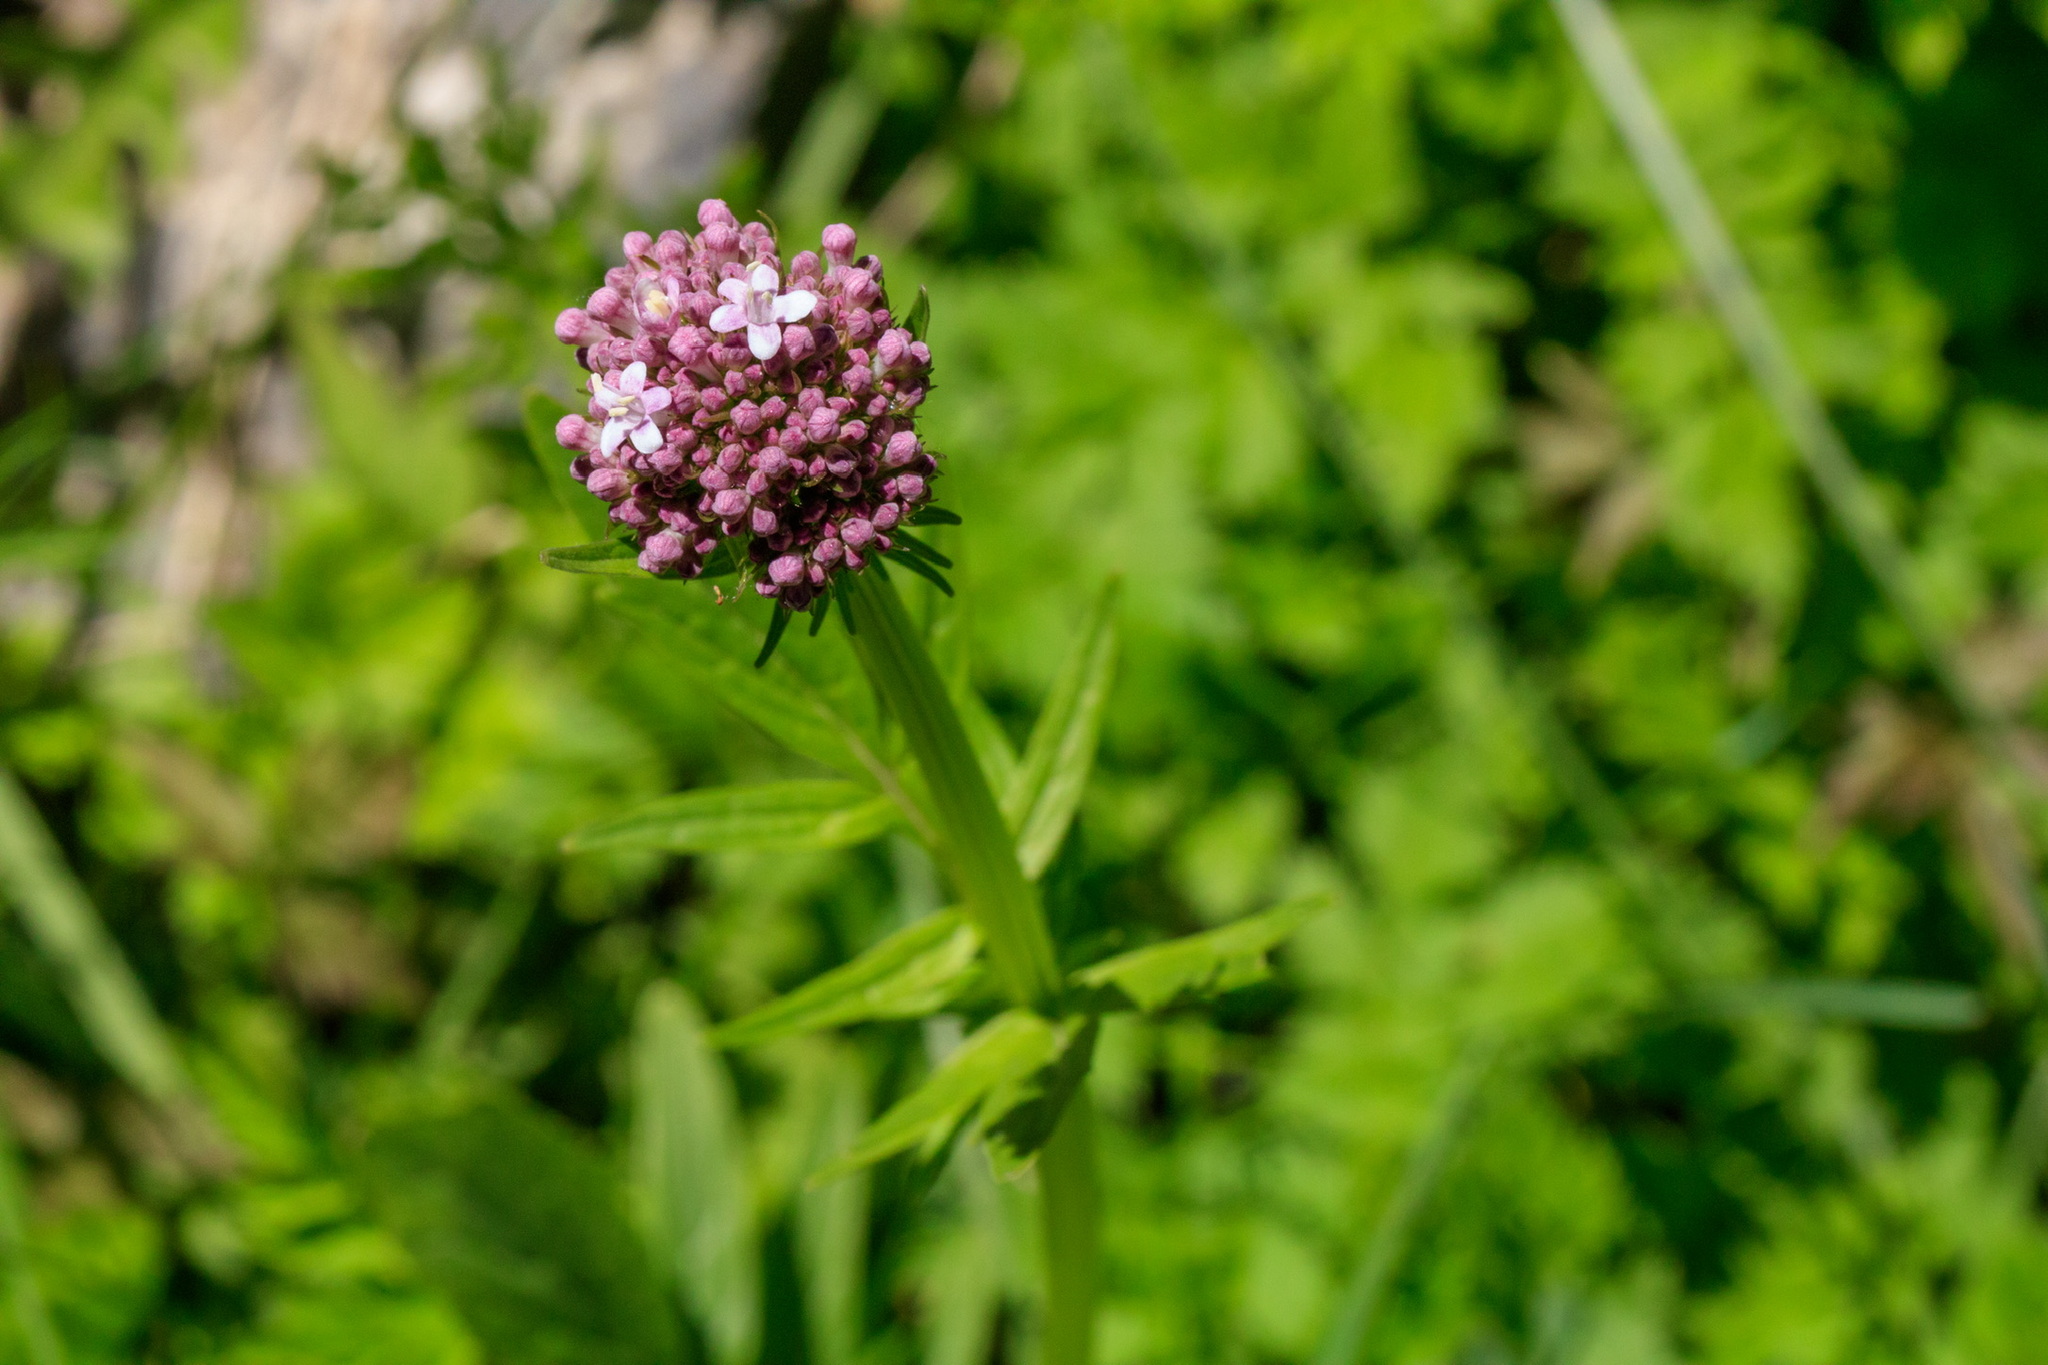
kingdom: Plantae
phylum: Tracheophyta
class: Magnoliopsida
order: Dipsacales
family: Caprifoliaceae
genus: Valeriana
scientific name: Valeriana dubia
